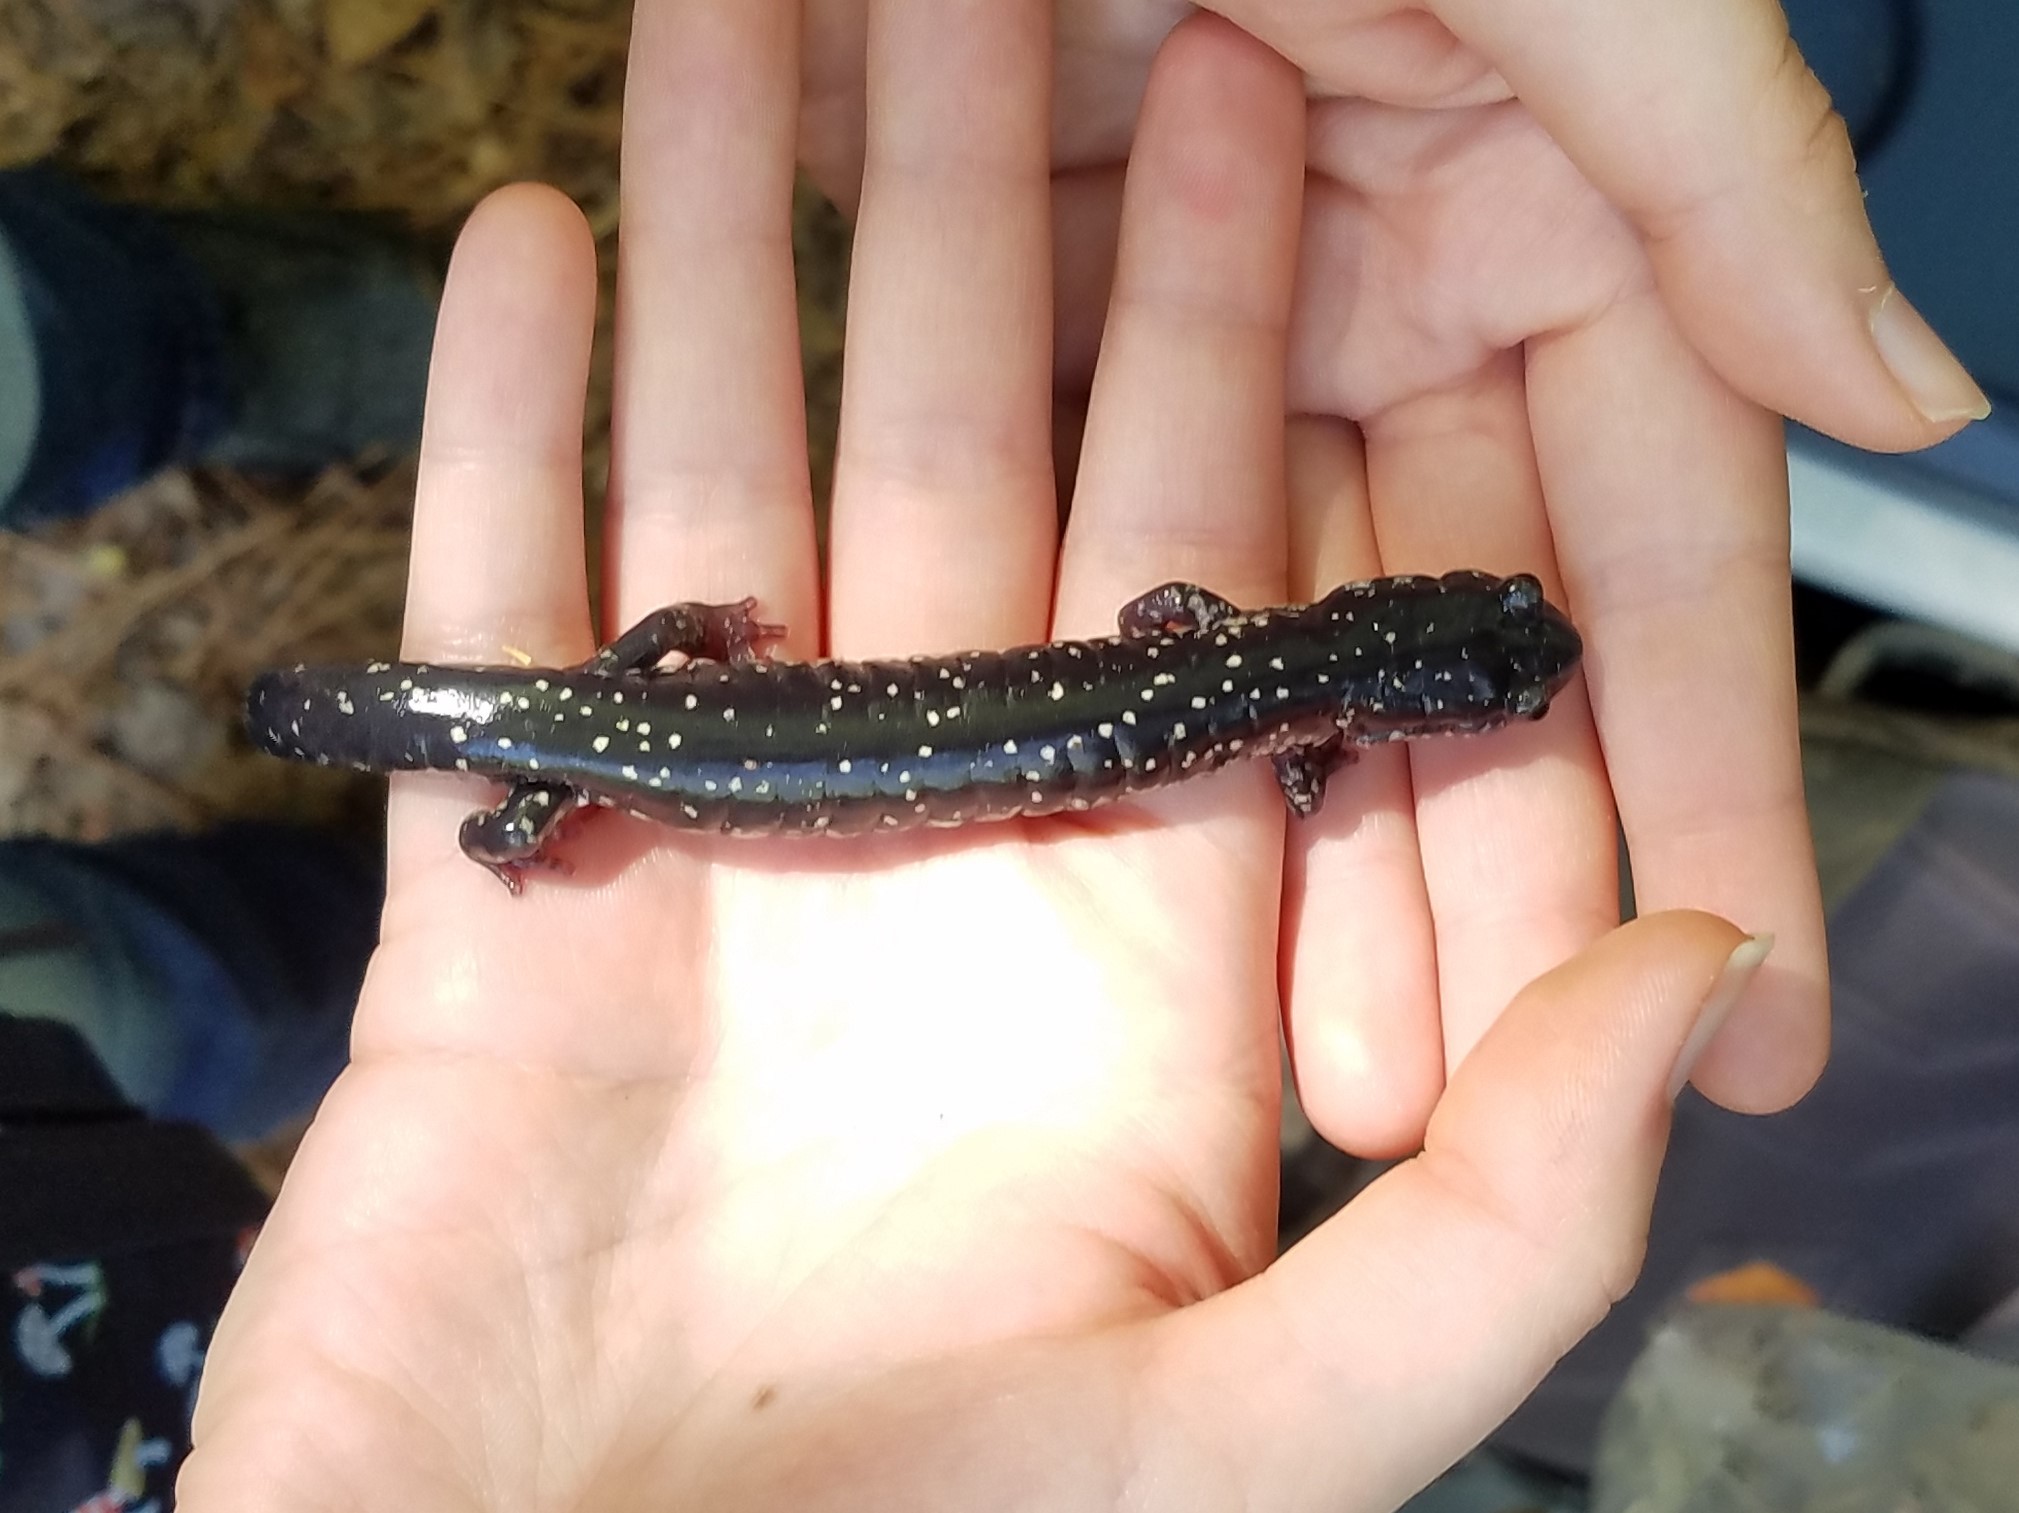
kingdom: Animalia
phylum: Chordata
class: Amphibia
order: Caudata
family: Plethodontidae
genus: Plethodon
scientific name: Plethodon glutinosus
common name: Northern slimy salamander
